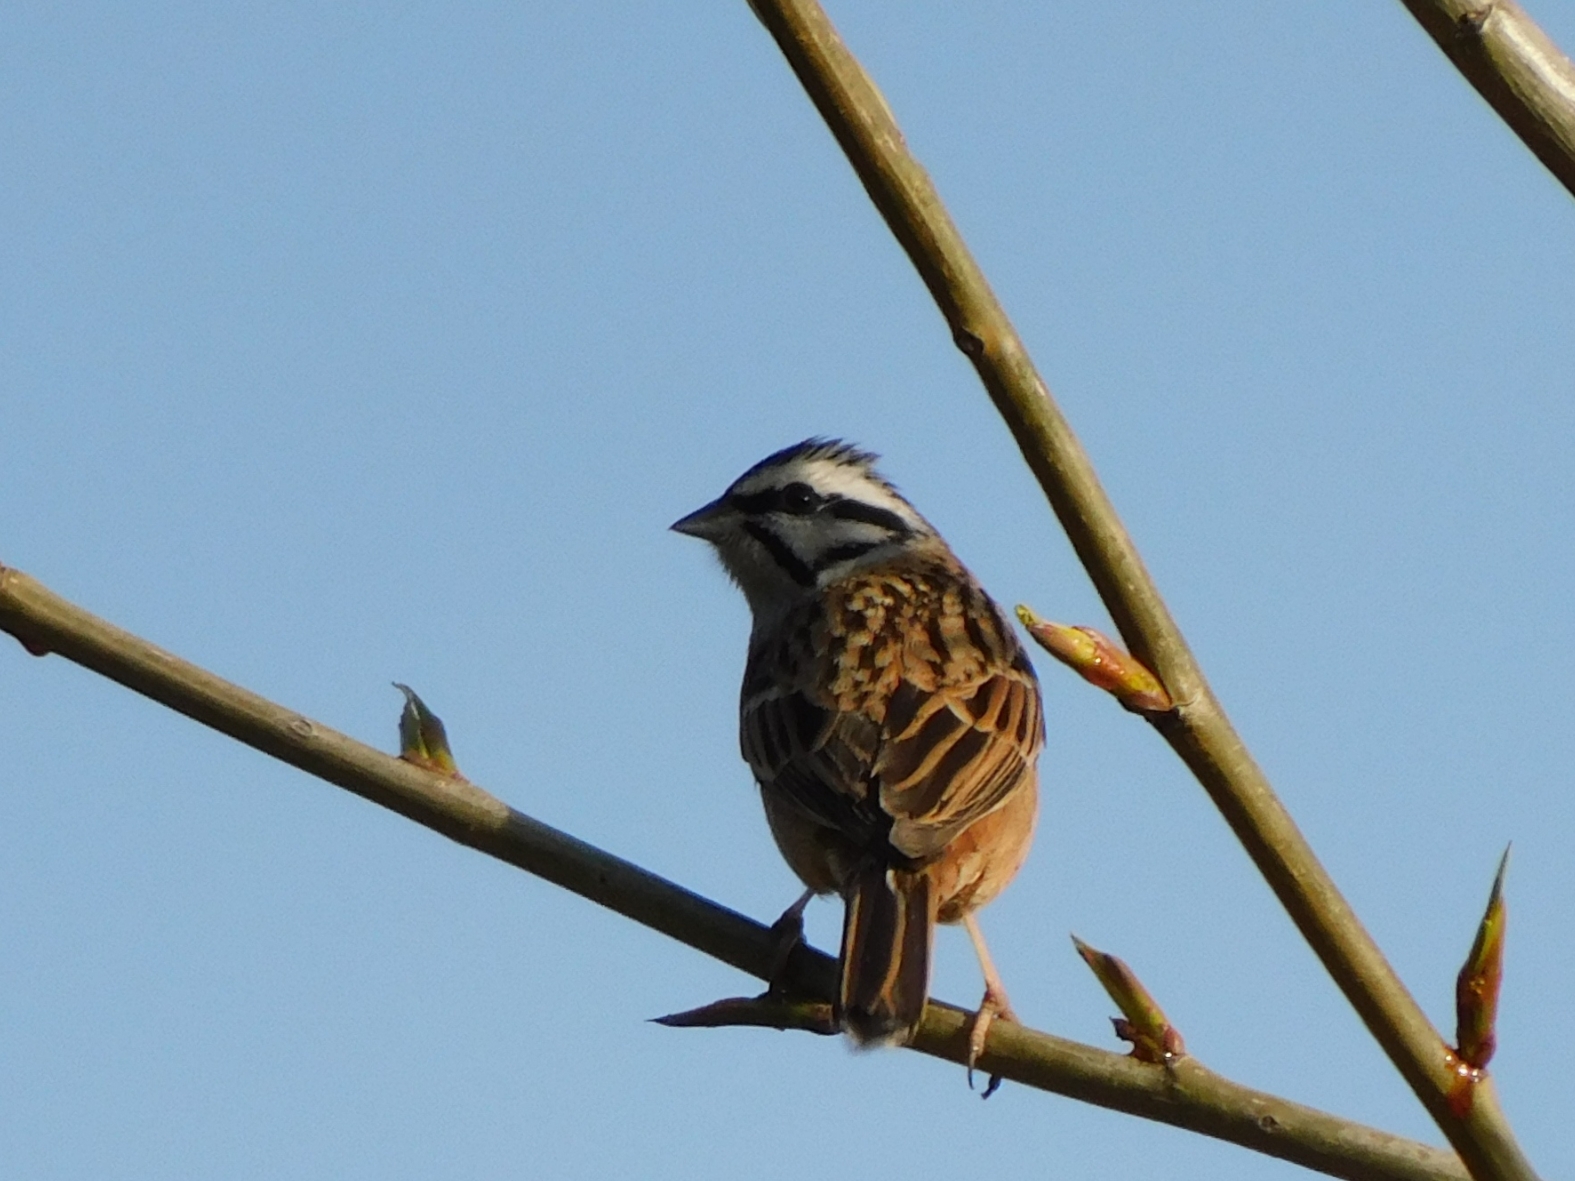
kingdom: Animalia
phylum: Chordata
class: Aves
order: Passeriformes
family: Emberizidae
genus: Emberiza
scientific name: Emberiza cia
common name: Rock bunting
